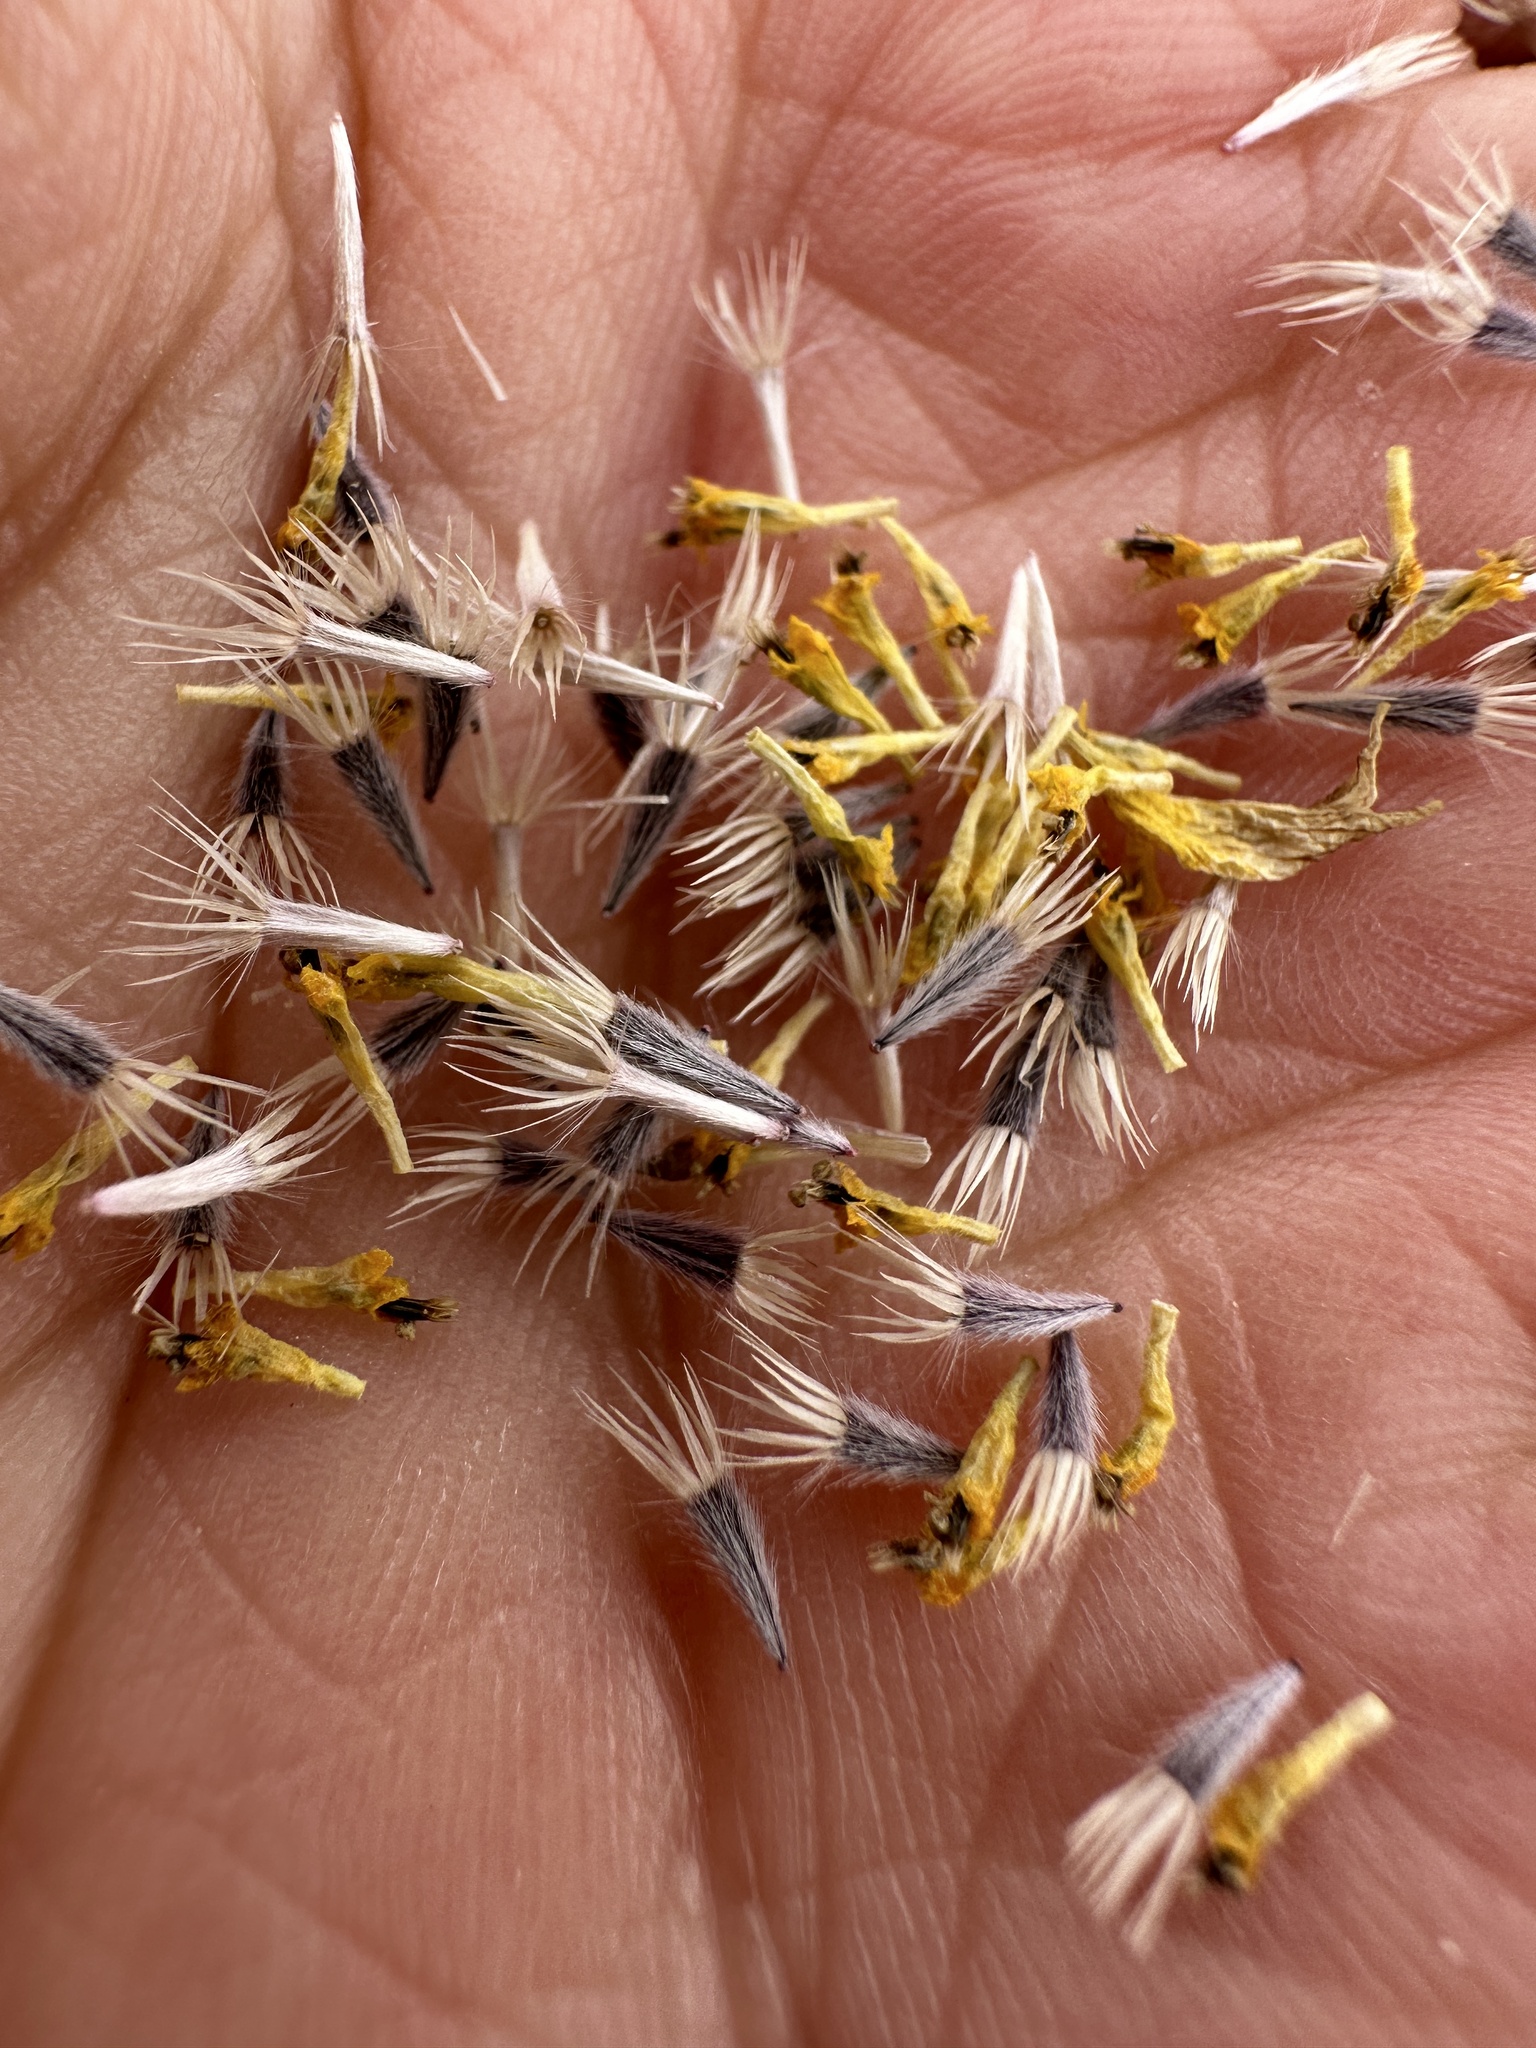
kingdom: Plantae
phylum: Tracheophyta
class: Magnoliopsida
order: Asterales
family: Asteraceae
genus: Layia
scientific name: Layia munzii
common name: Munz's tidy-tips
